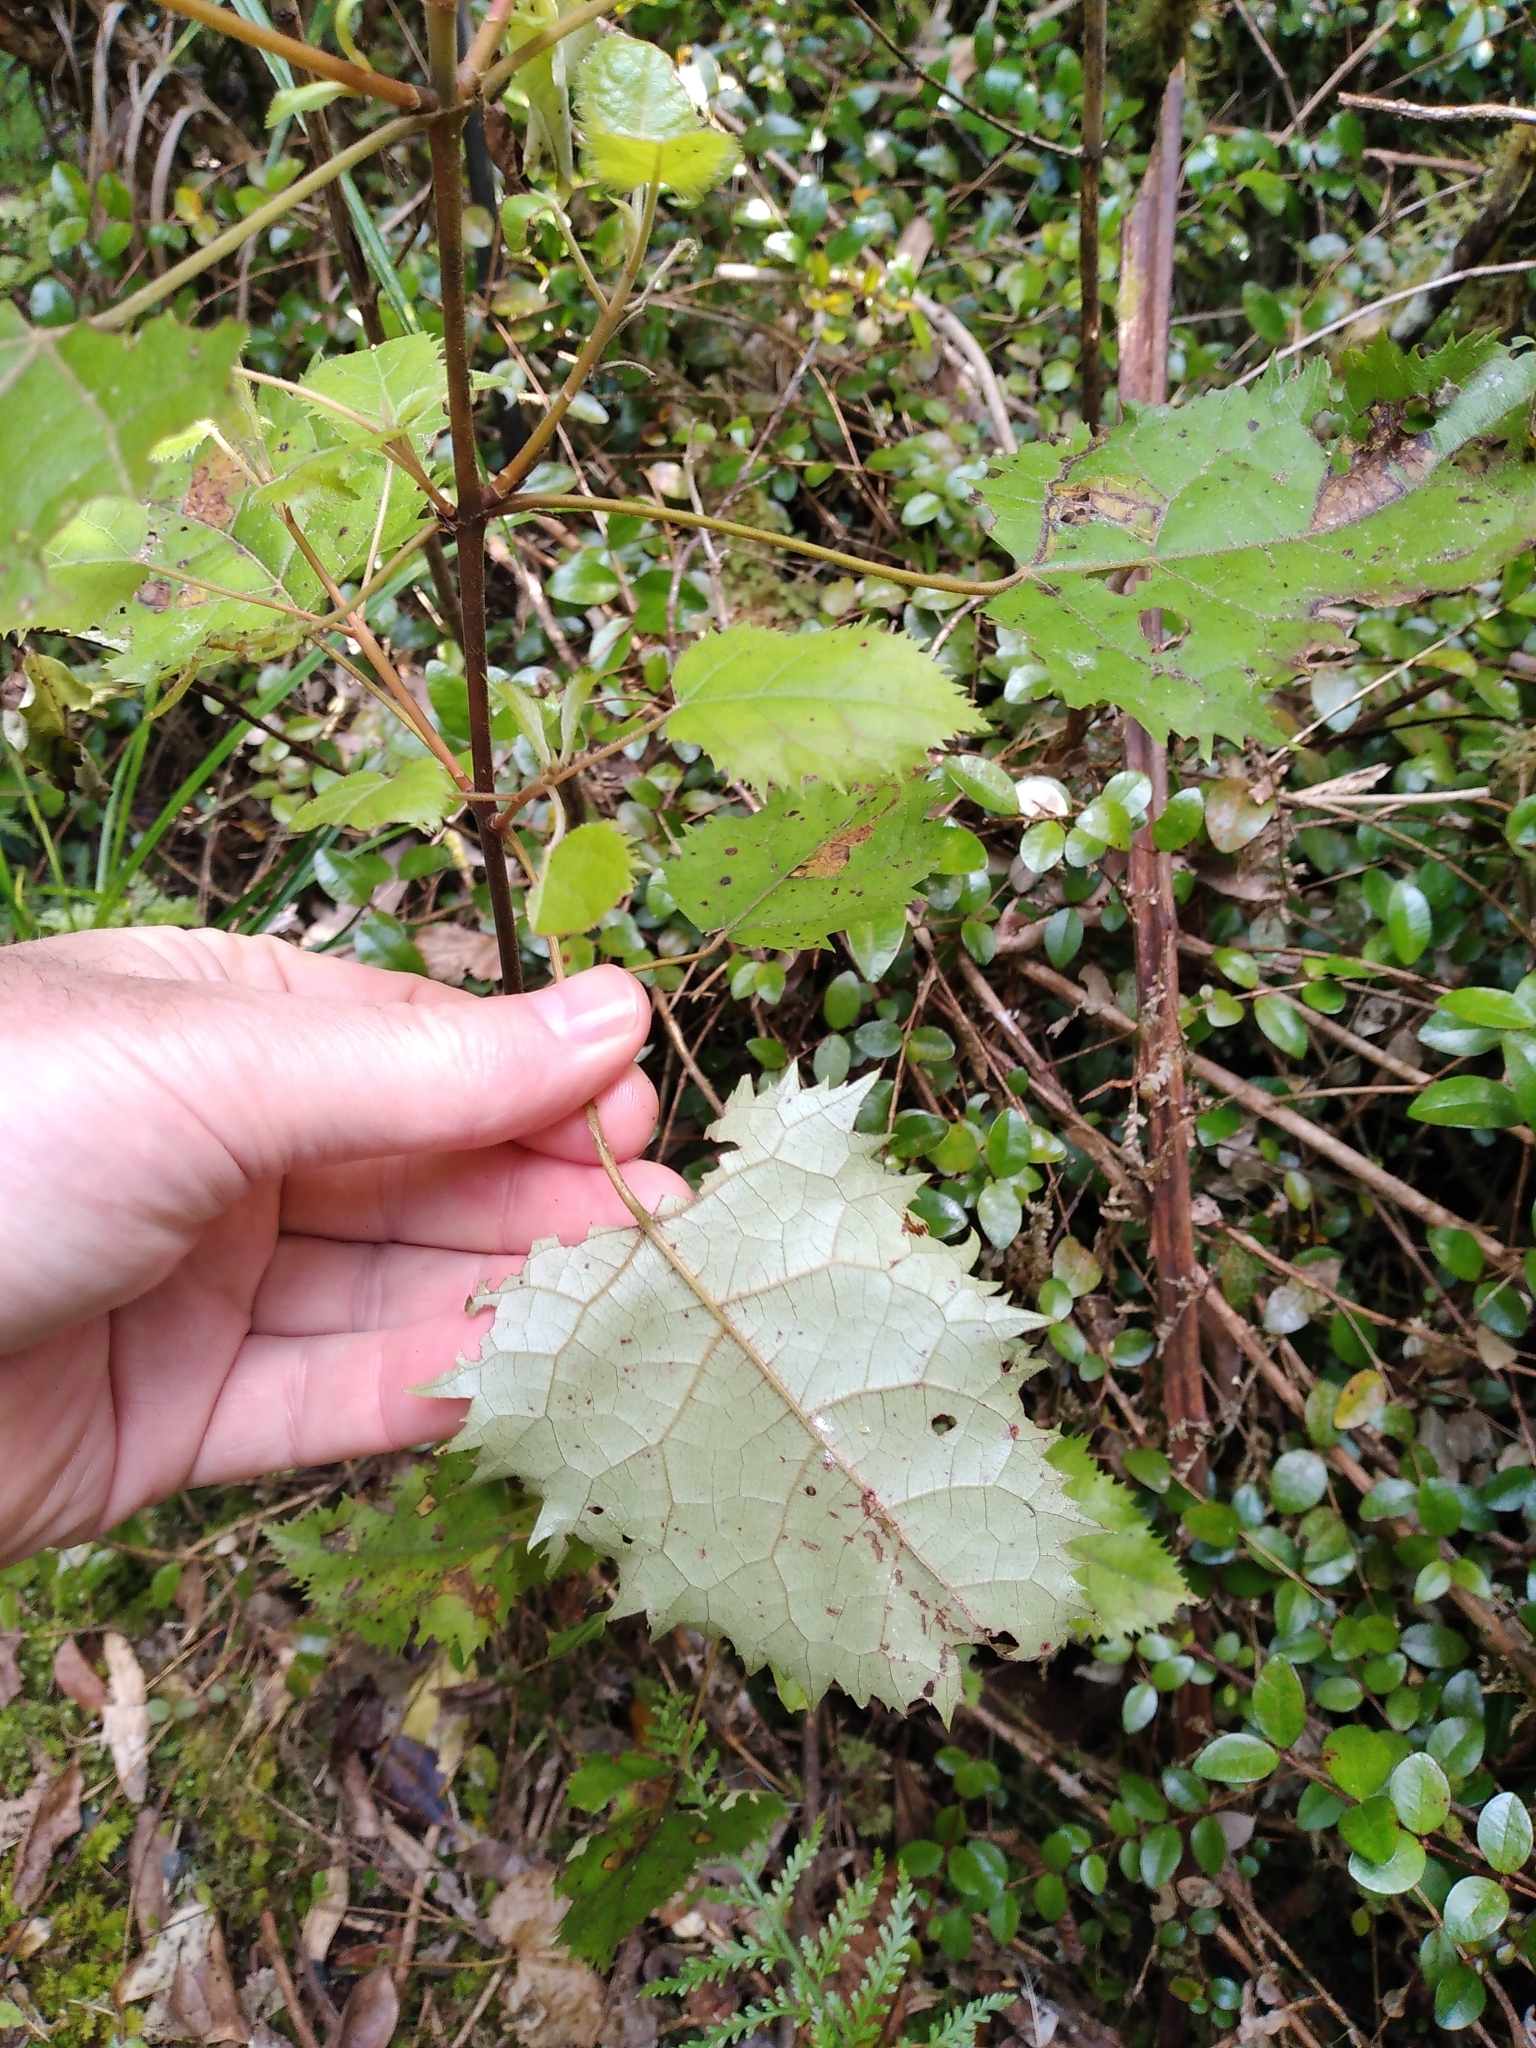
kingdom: Plantae
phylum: Tracheophyta
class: Magnoliopsida
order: Oxalidales
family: Elaeocarpaceae
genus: Aristotelia
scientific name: Aristotelia serrata
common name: New zealand wineberry
